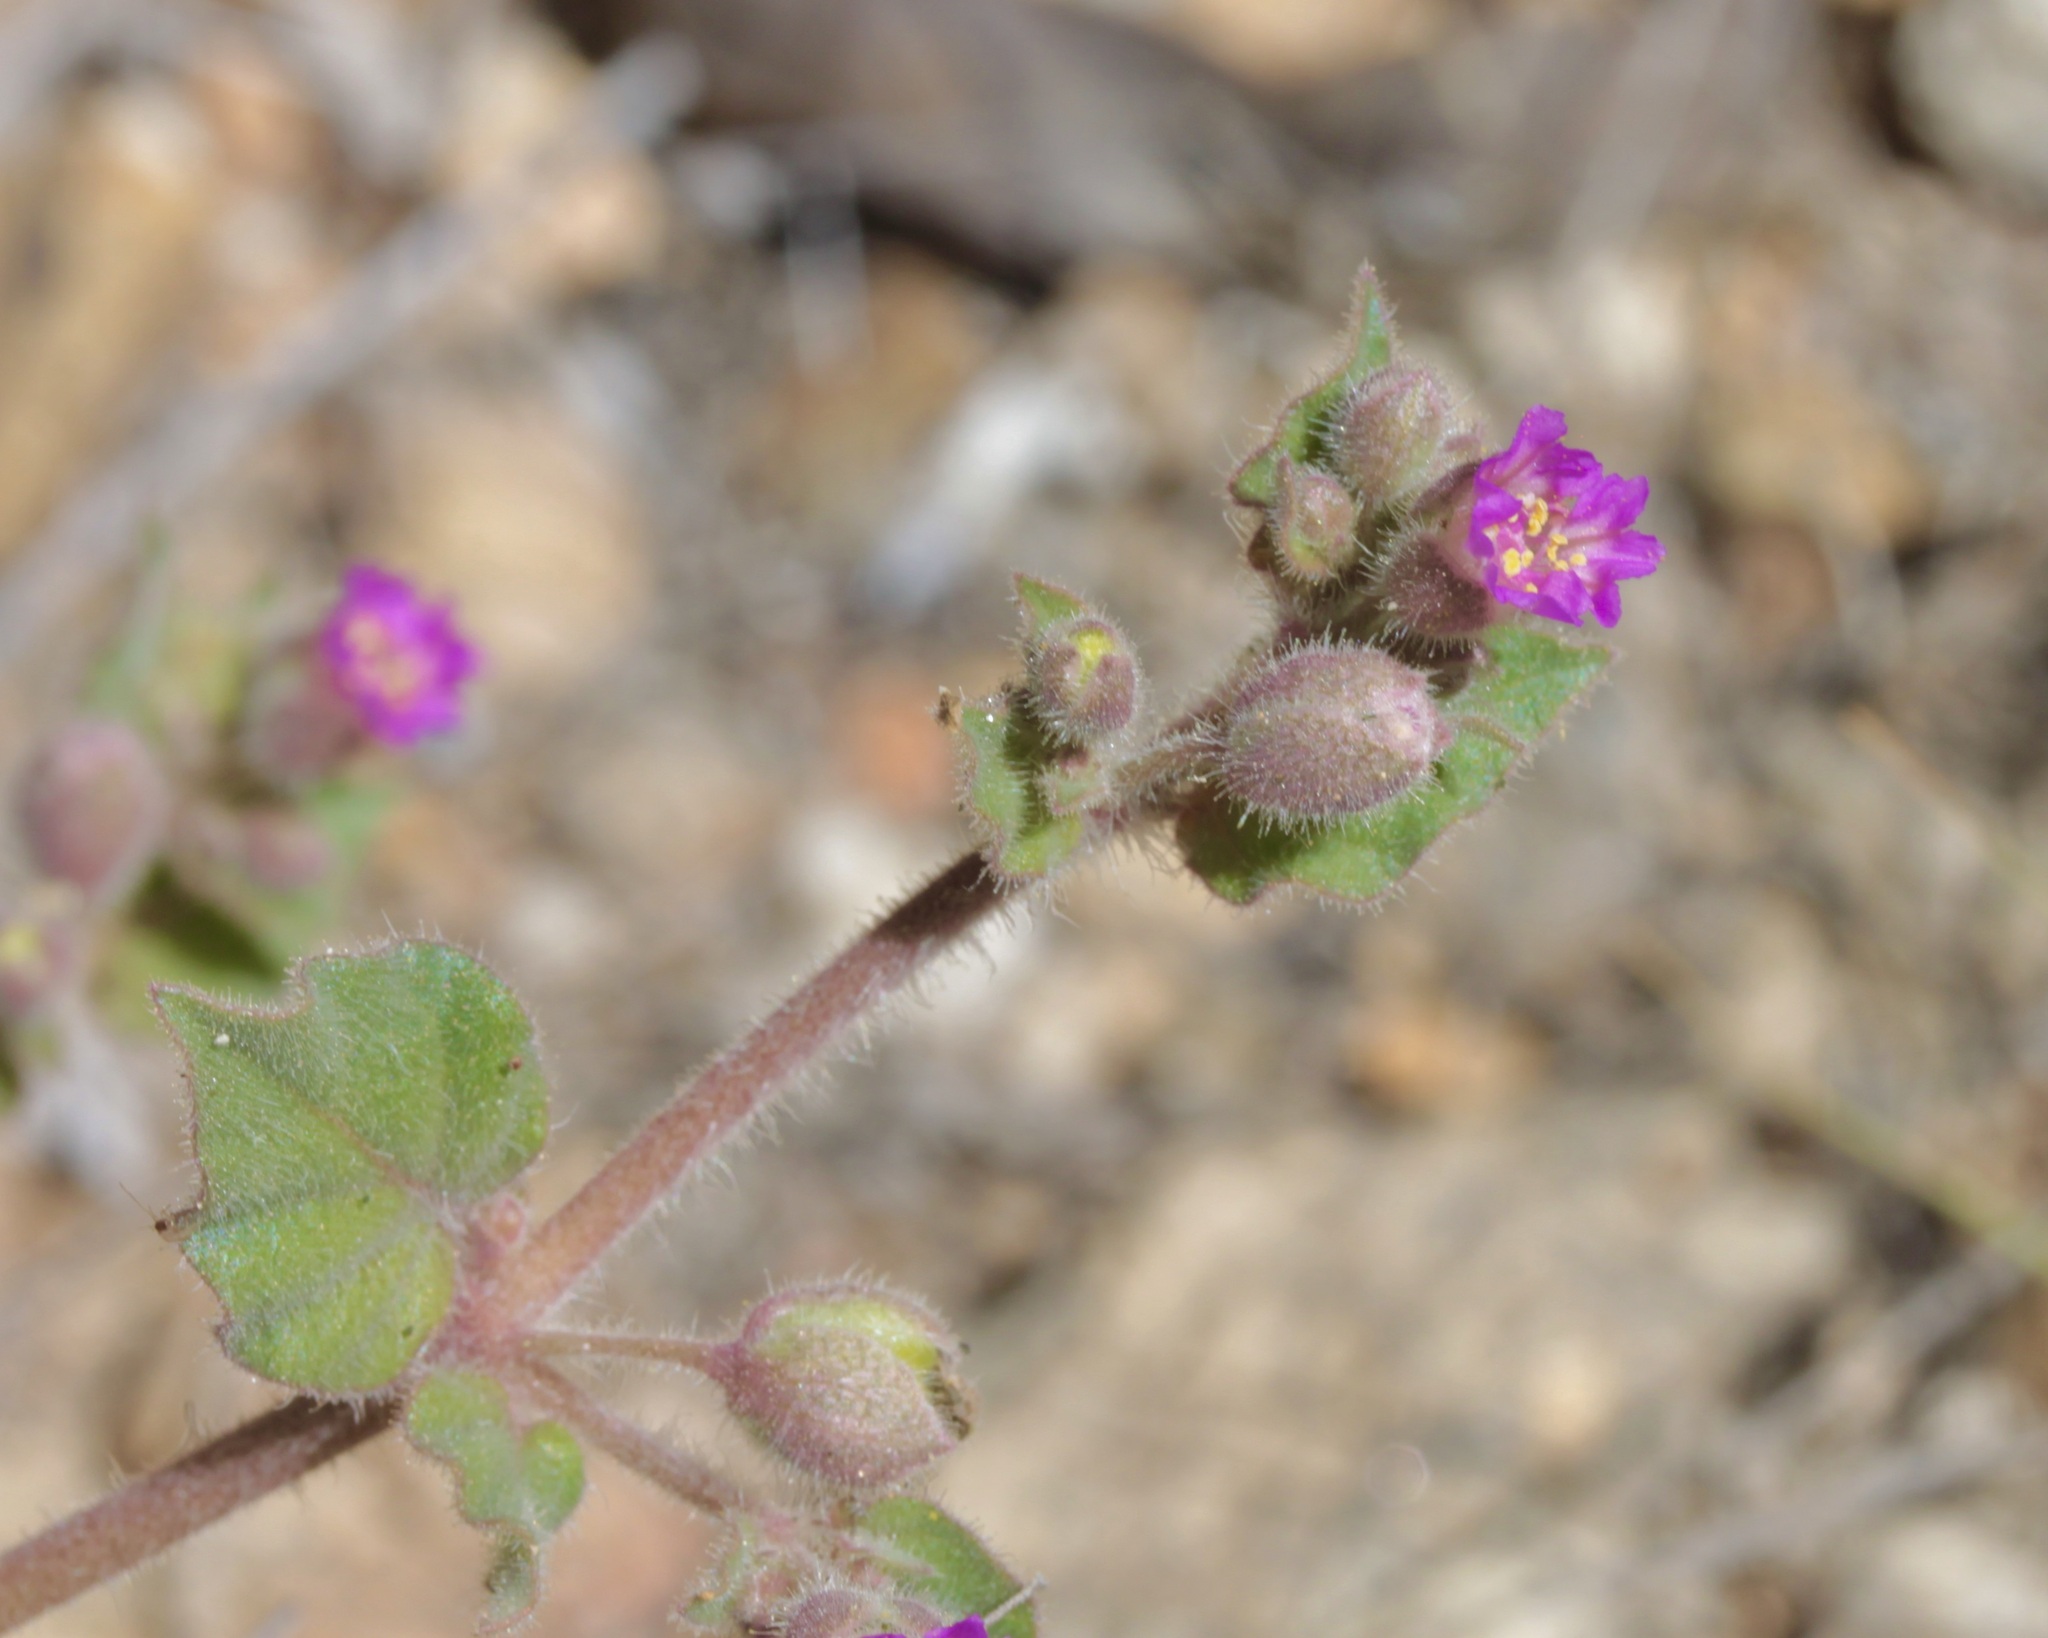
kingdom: Plantae
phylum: Tracheophyta
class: Magnoliopsida
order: Caryophyllales
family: Nyctaginaceae
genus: Allionia
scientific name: Allionia incarnata
